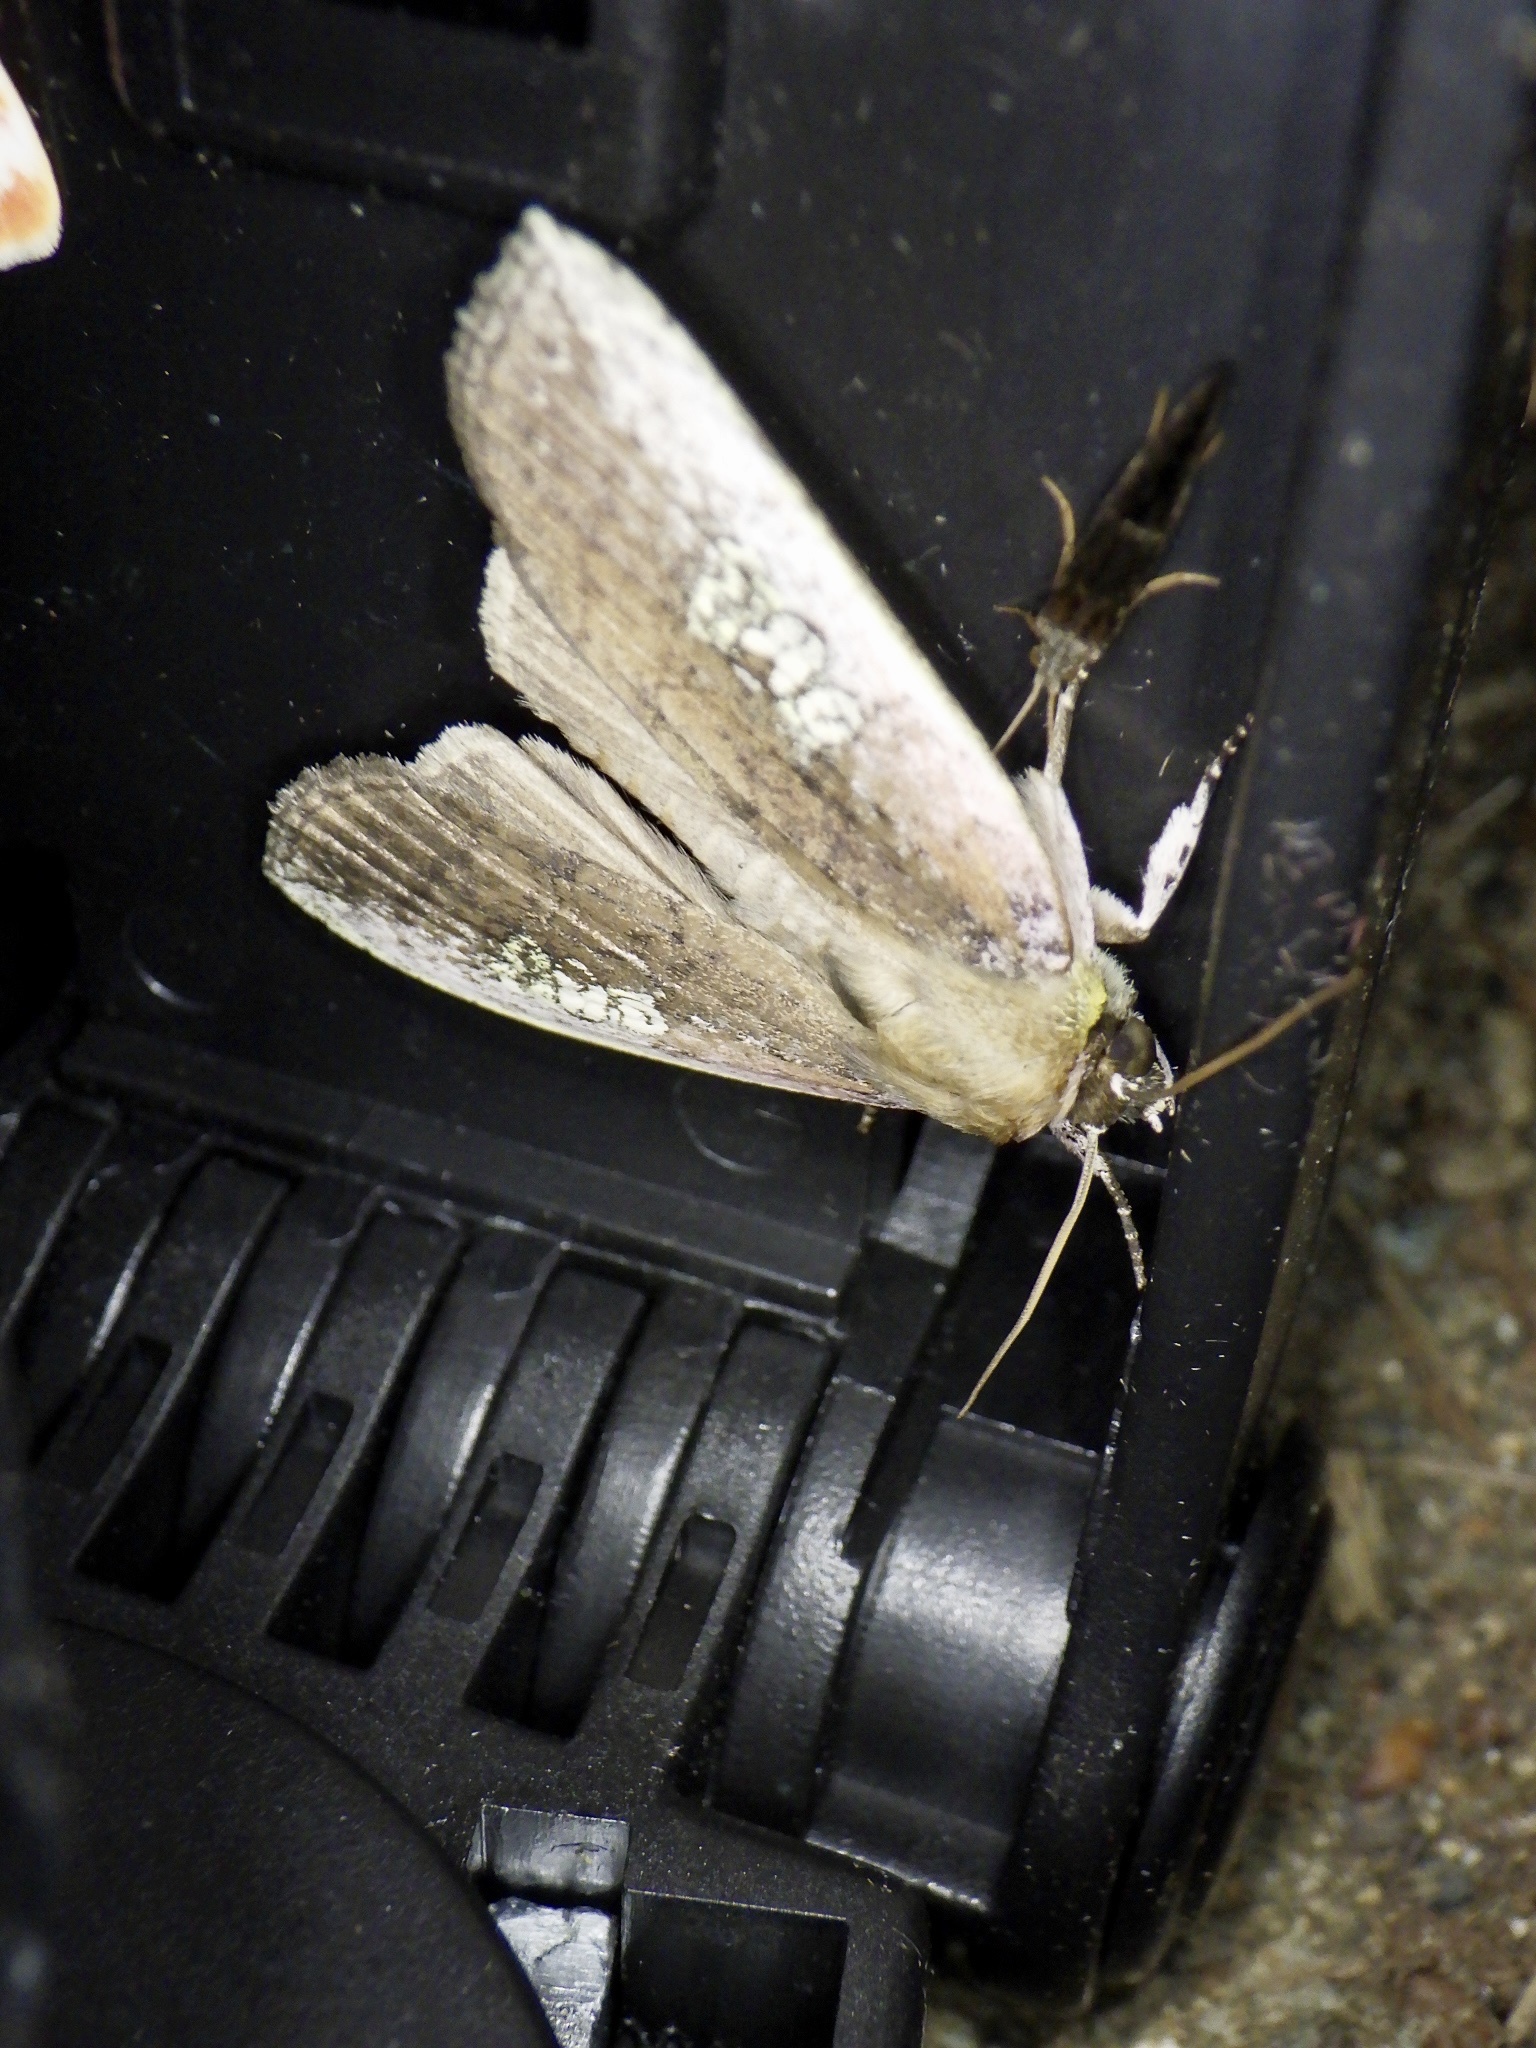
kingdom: Animalia
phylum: Arthropoda
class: Insecta
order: Lepidoptera
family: Drepanidae
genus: Tethea
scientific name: Tethea consimilis
